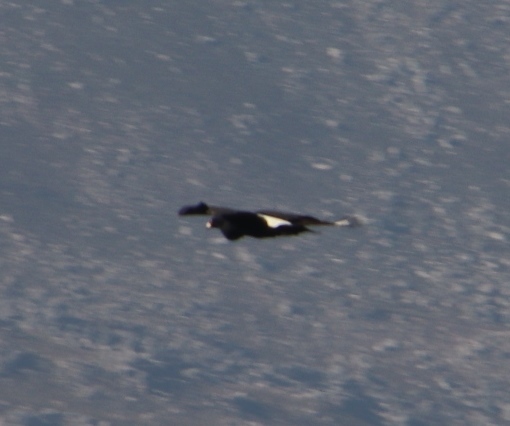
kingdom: Animalia
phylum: Chordata
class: Aves
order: Accipitriformes
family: Accipitridae
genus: Aquila
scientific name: Aquila verreauxii
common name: Verreaux's eagle
